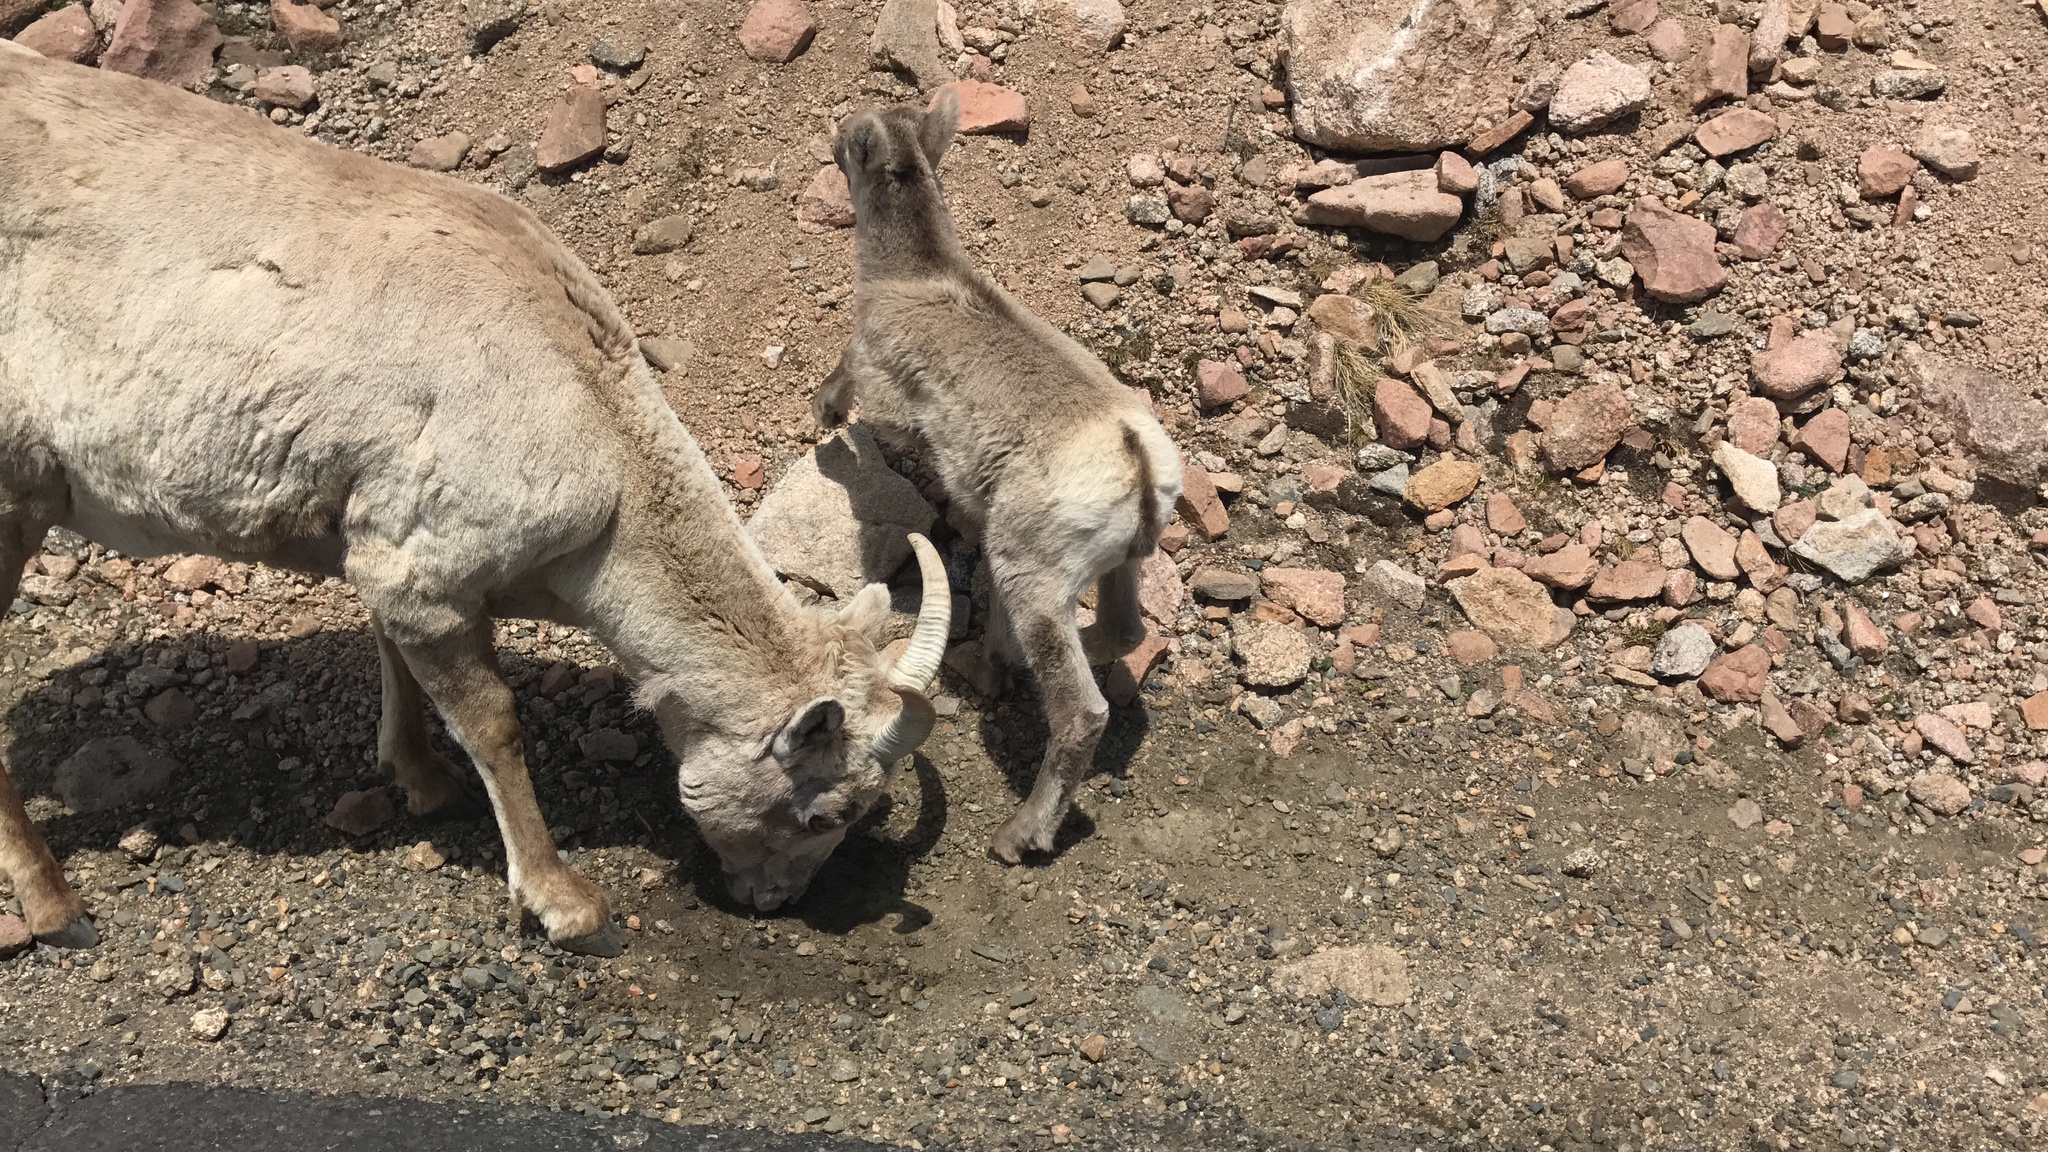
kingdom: Animalia
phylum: Chordata
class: Mammalia
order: Artiodactyla
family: Bovidae
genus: Ovis
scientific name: Ovis canadensis
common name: Bighorn sheep
